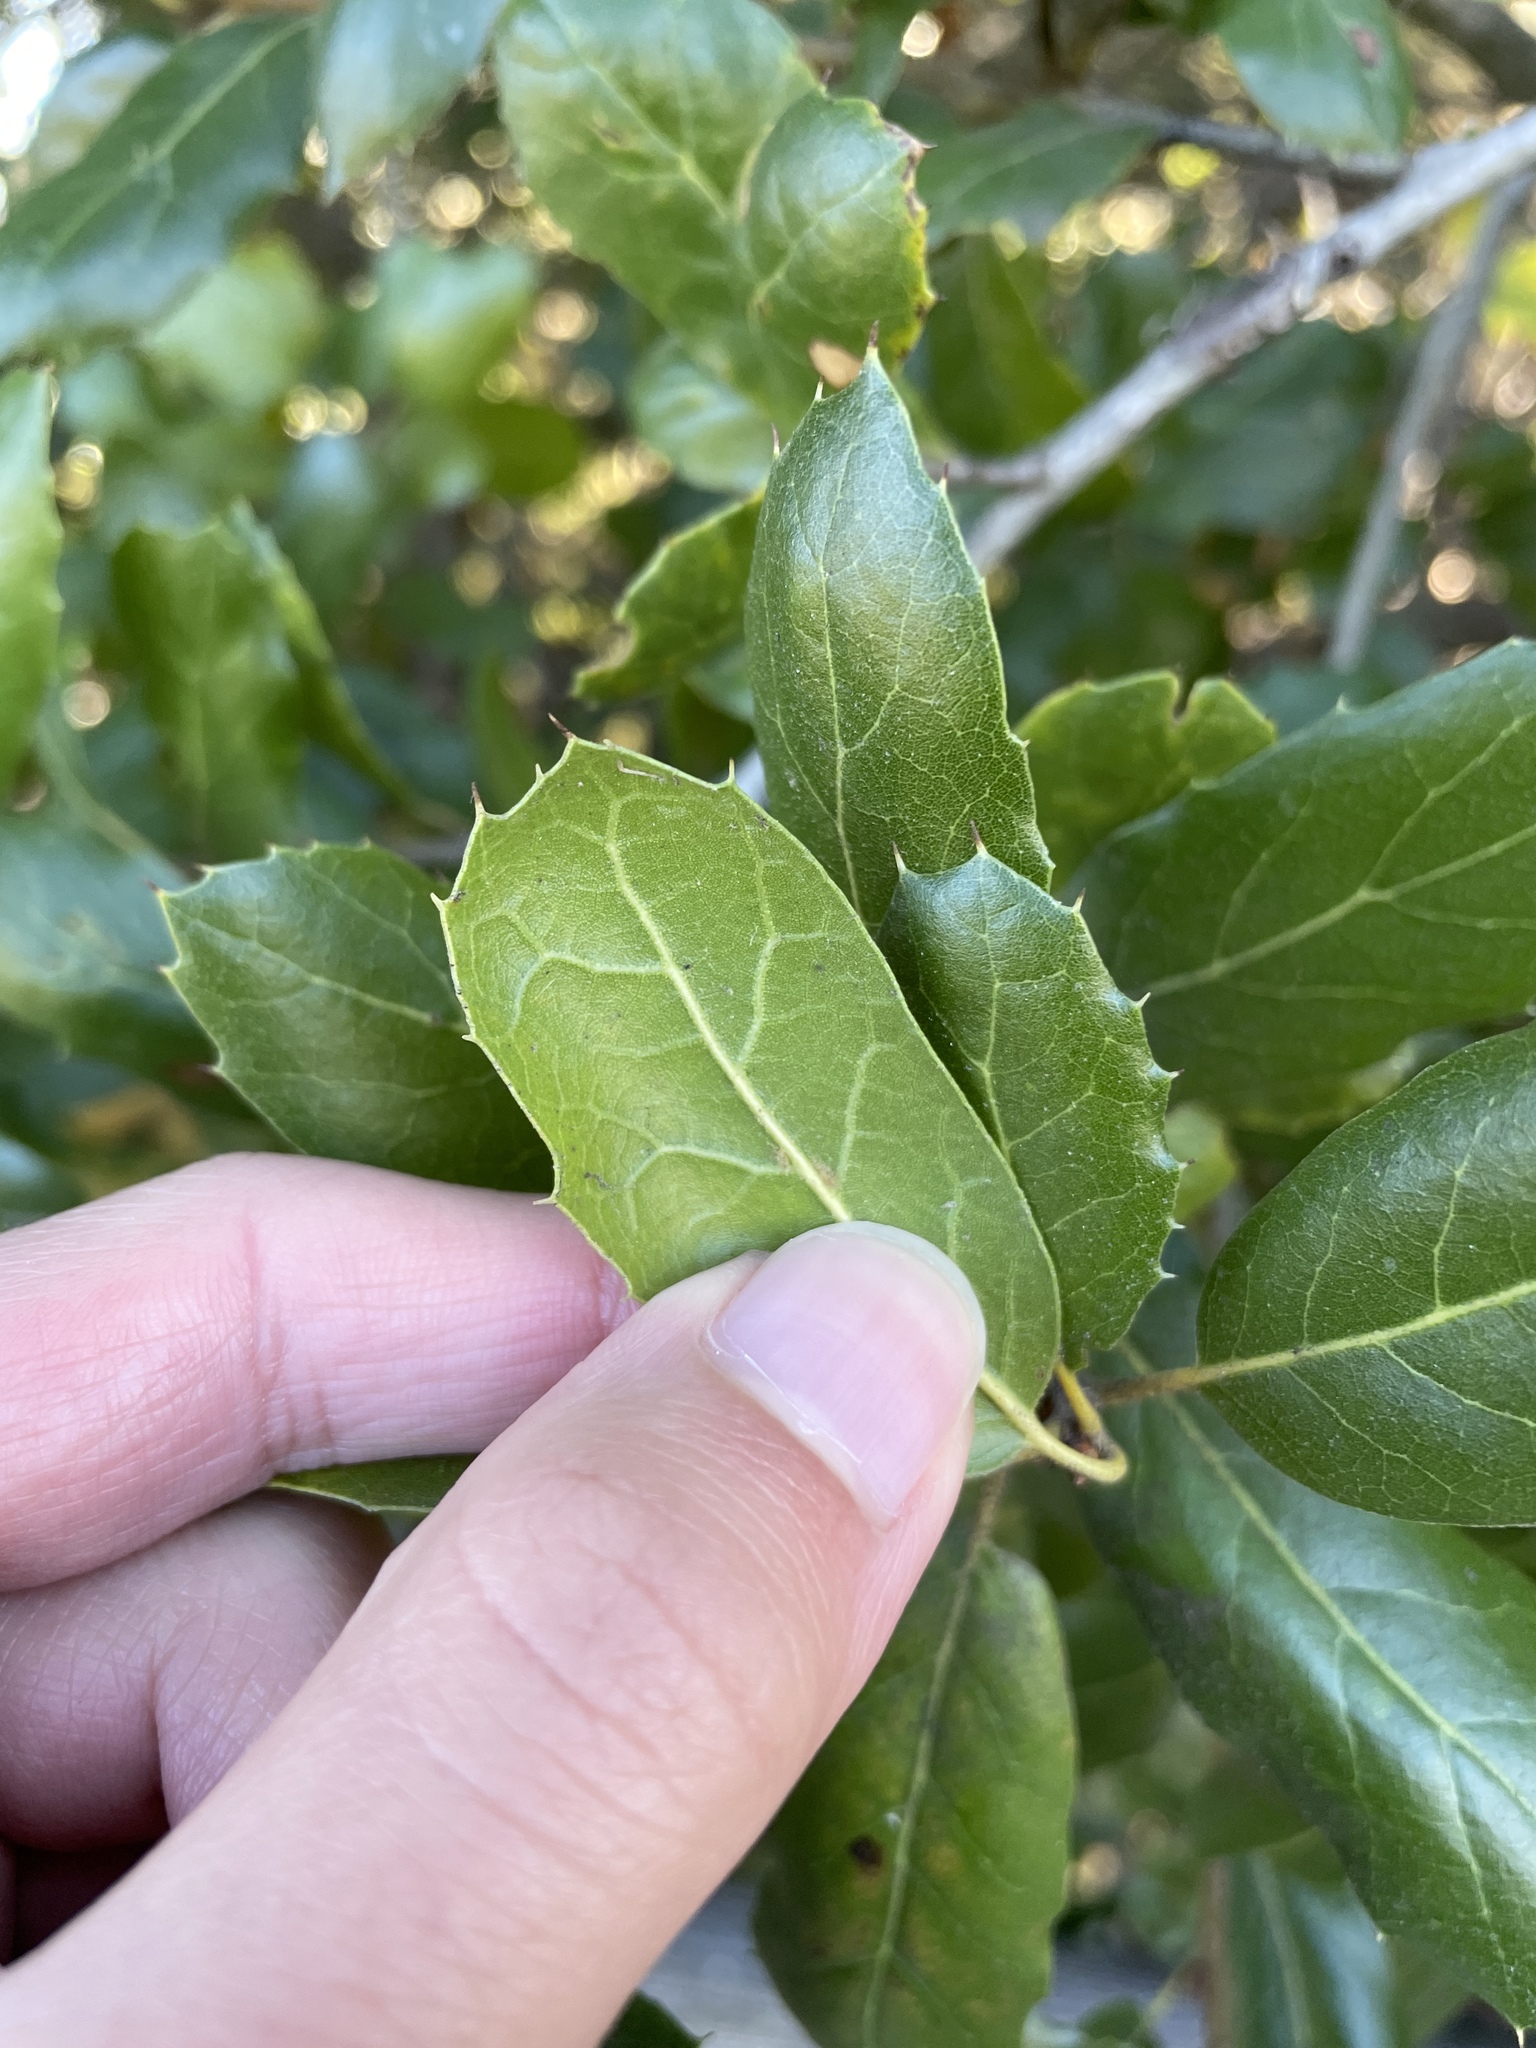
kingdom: Plantae
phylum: Tracheophyta
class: Magnoliopsida
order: Fagales
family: Fagaceae
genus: Quercus
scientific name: Quercus agrifolia
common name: California live oak
